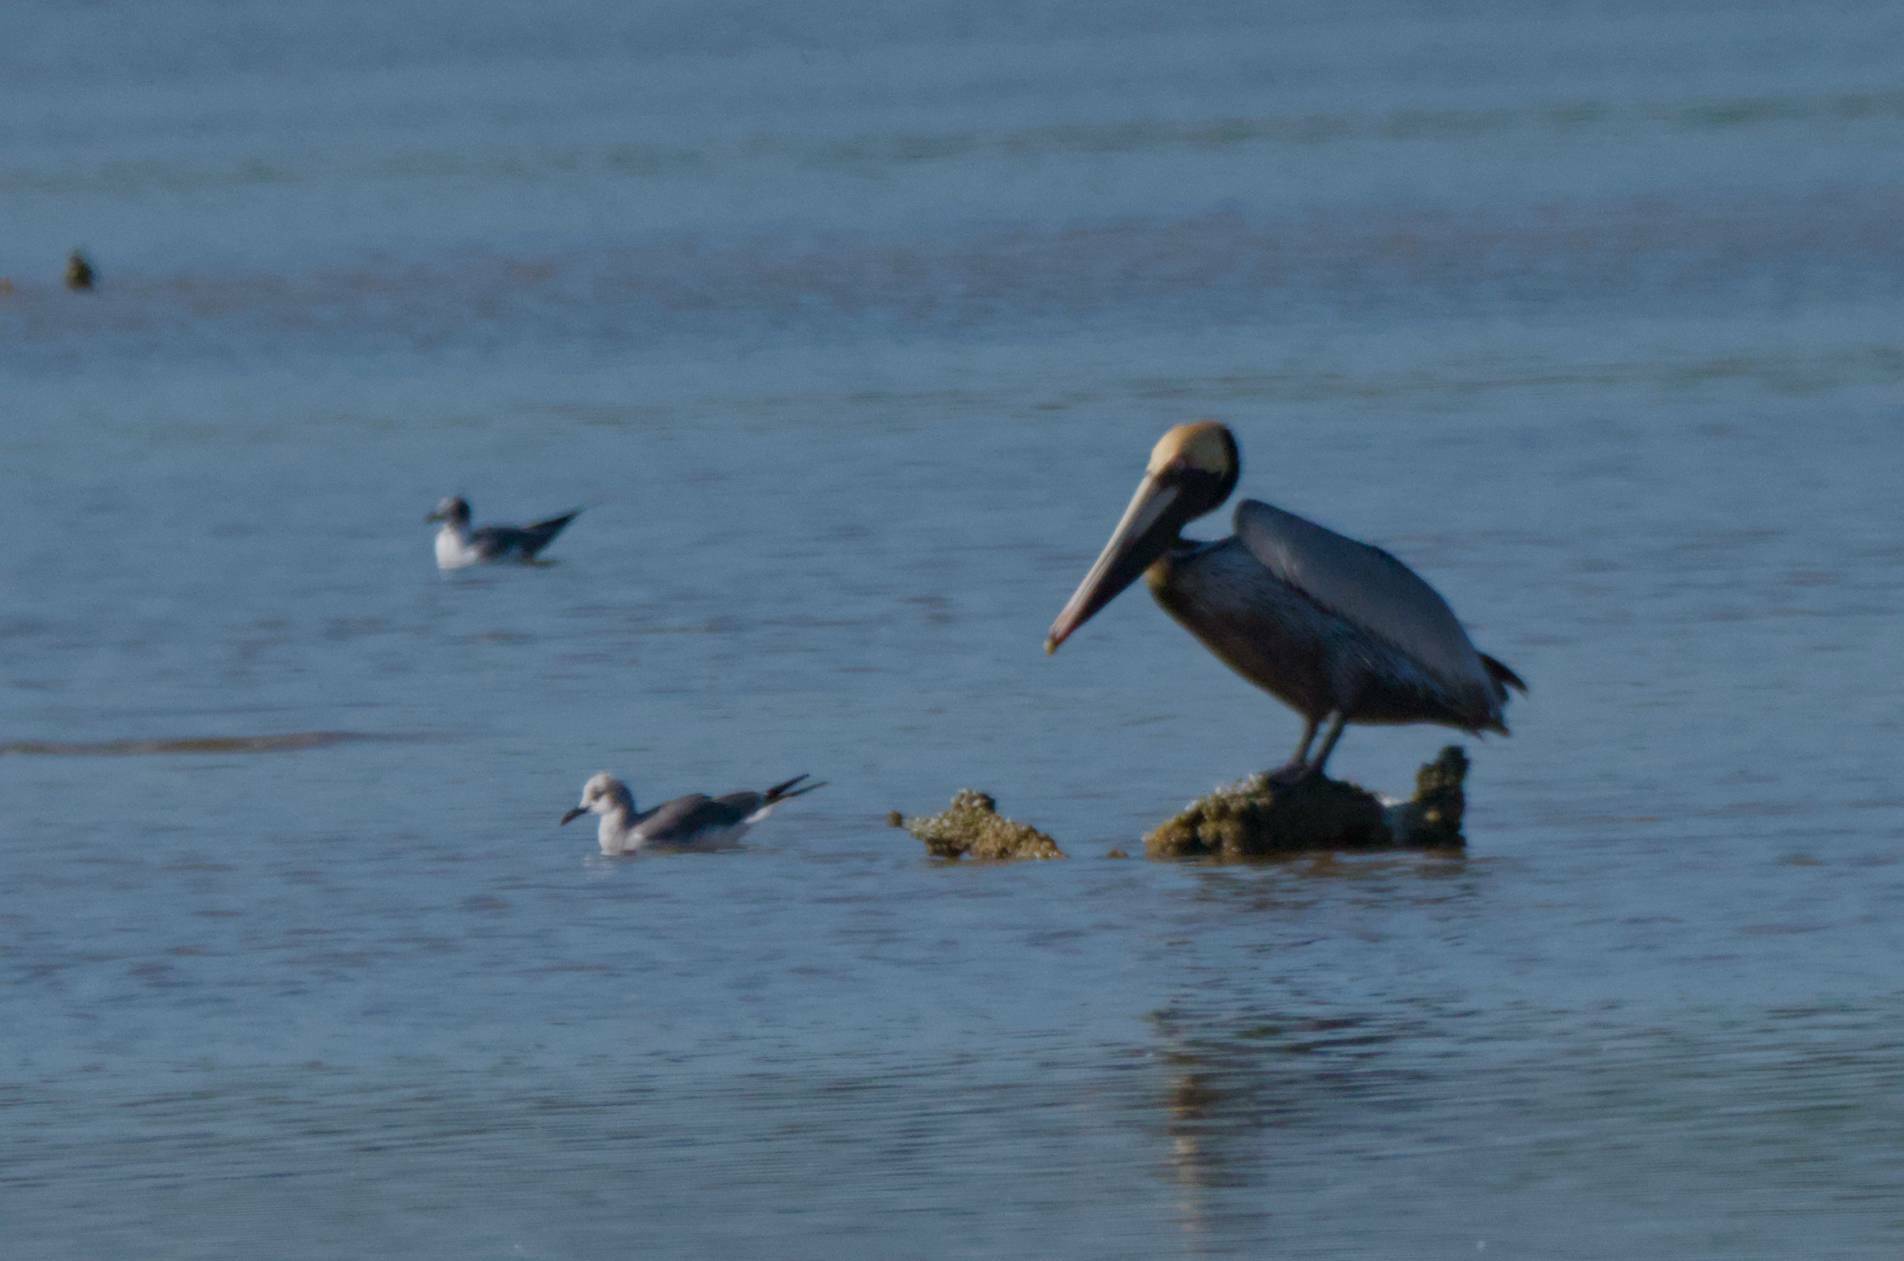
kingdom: Animalia
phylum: Chordata
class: Aves
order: Pelecaniformes
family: Pelecanidae
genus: Pelecanus
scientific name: Pelecanus occidentalis
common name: Brown pelican
